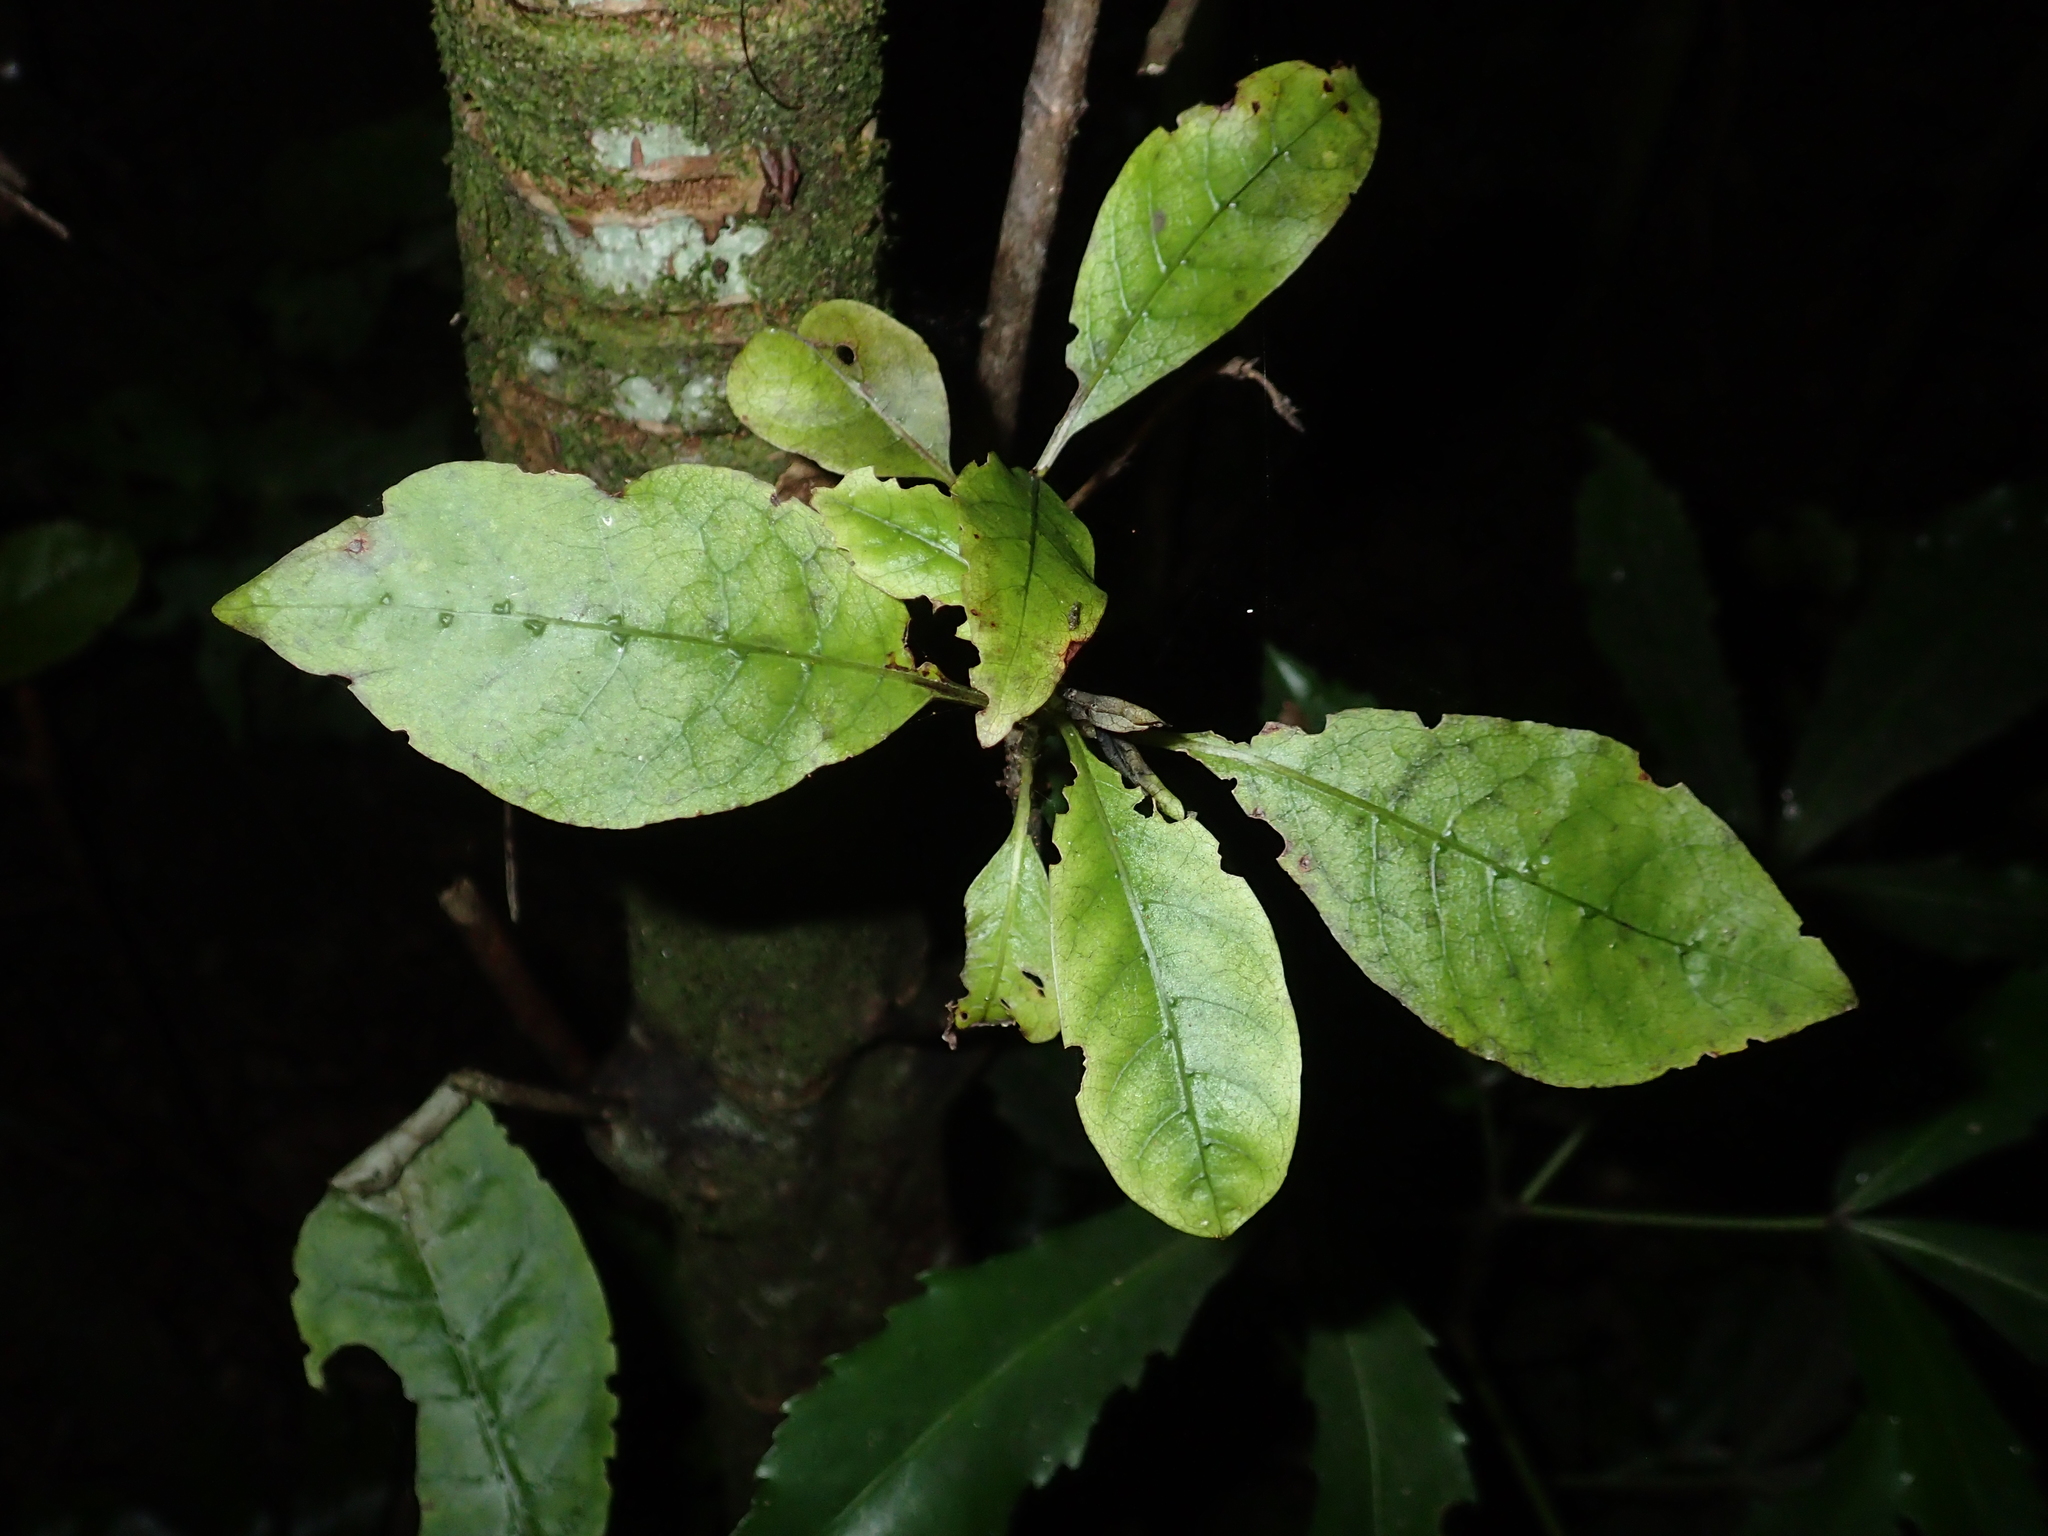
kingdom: Animalia
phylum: Chordata
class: Aves
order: Psittaciformes
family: Psittacidae
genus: Nestor
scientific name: Nestor meridionalis
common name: New zealand kaka
